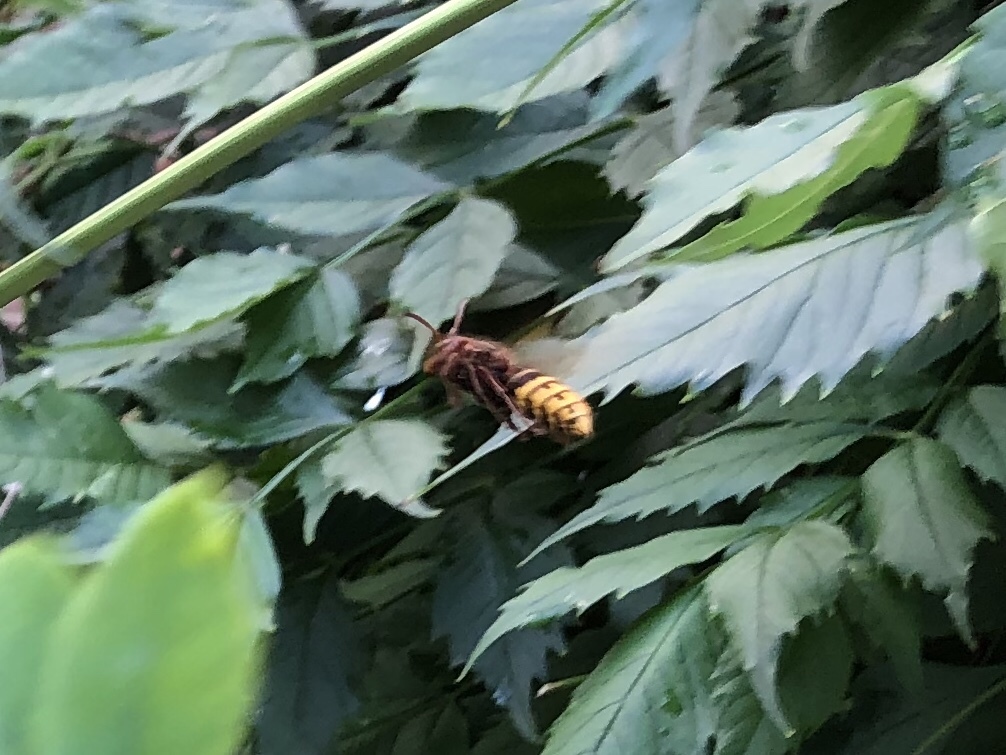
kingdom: Animalia
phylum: Arthropoda
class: Insecta
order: Hymenoptera
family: Vespidae
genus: Vespa
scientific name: Vespa crabro
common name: Hornet
